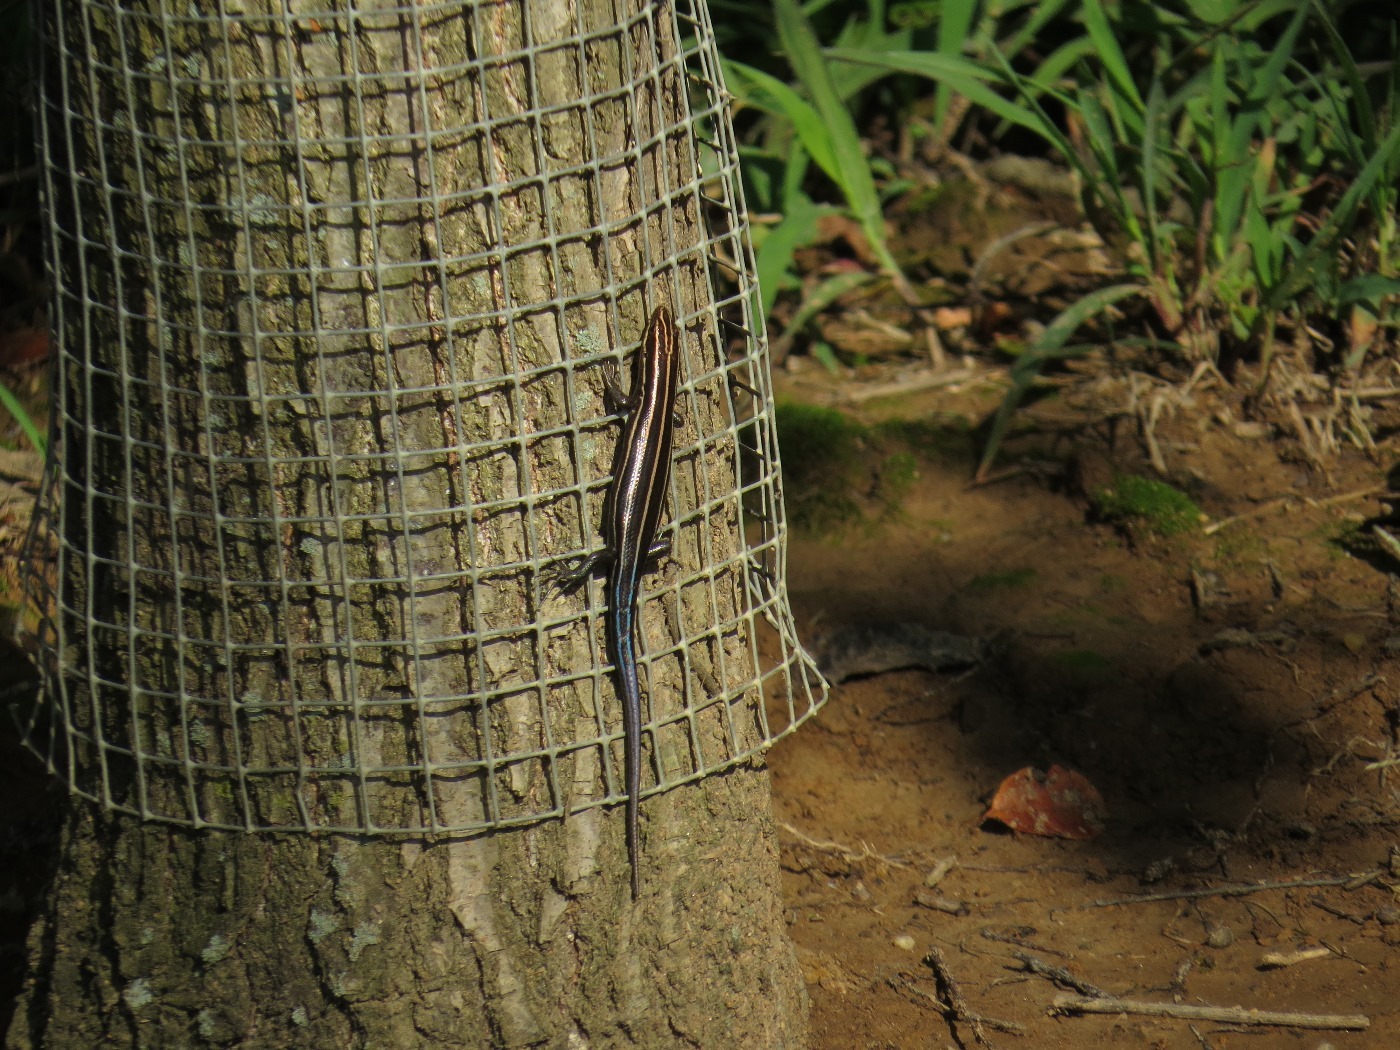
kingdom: Animalia
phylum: Chordata
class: Squamata
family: Scincidae
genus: Plestiodon
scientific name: Plestiodon fasciatus
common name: Five-lined skink
